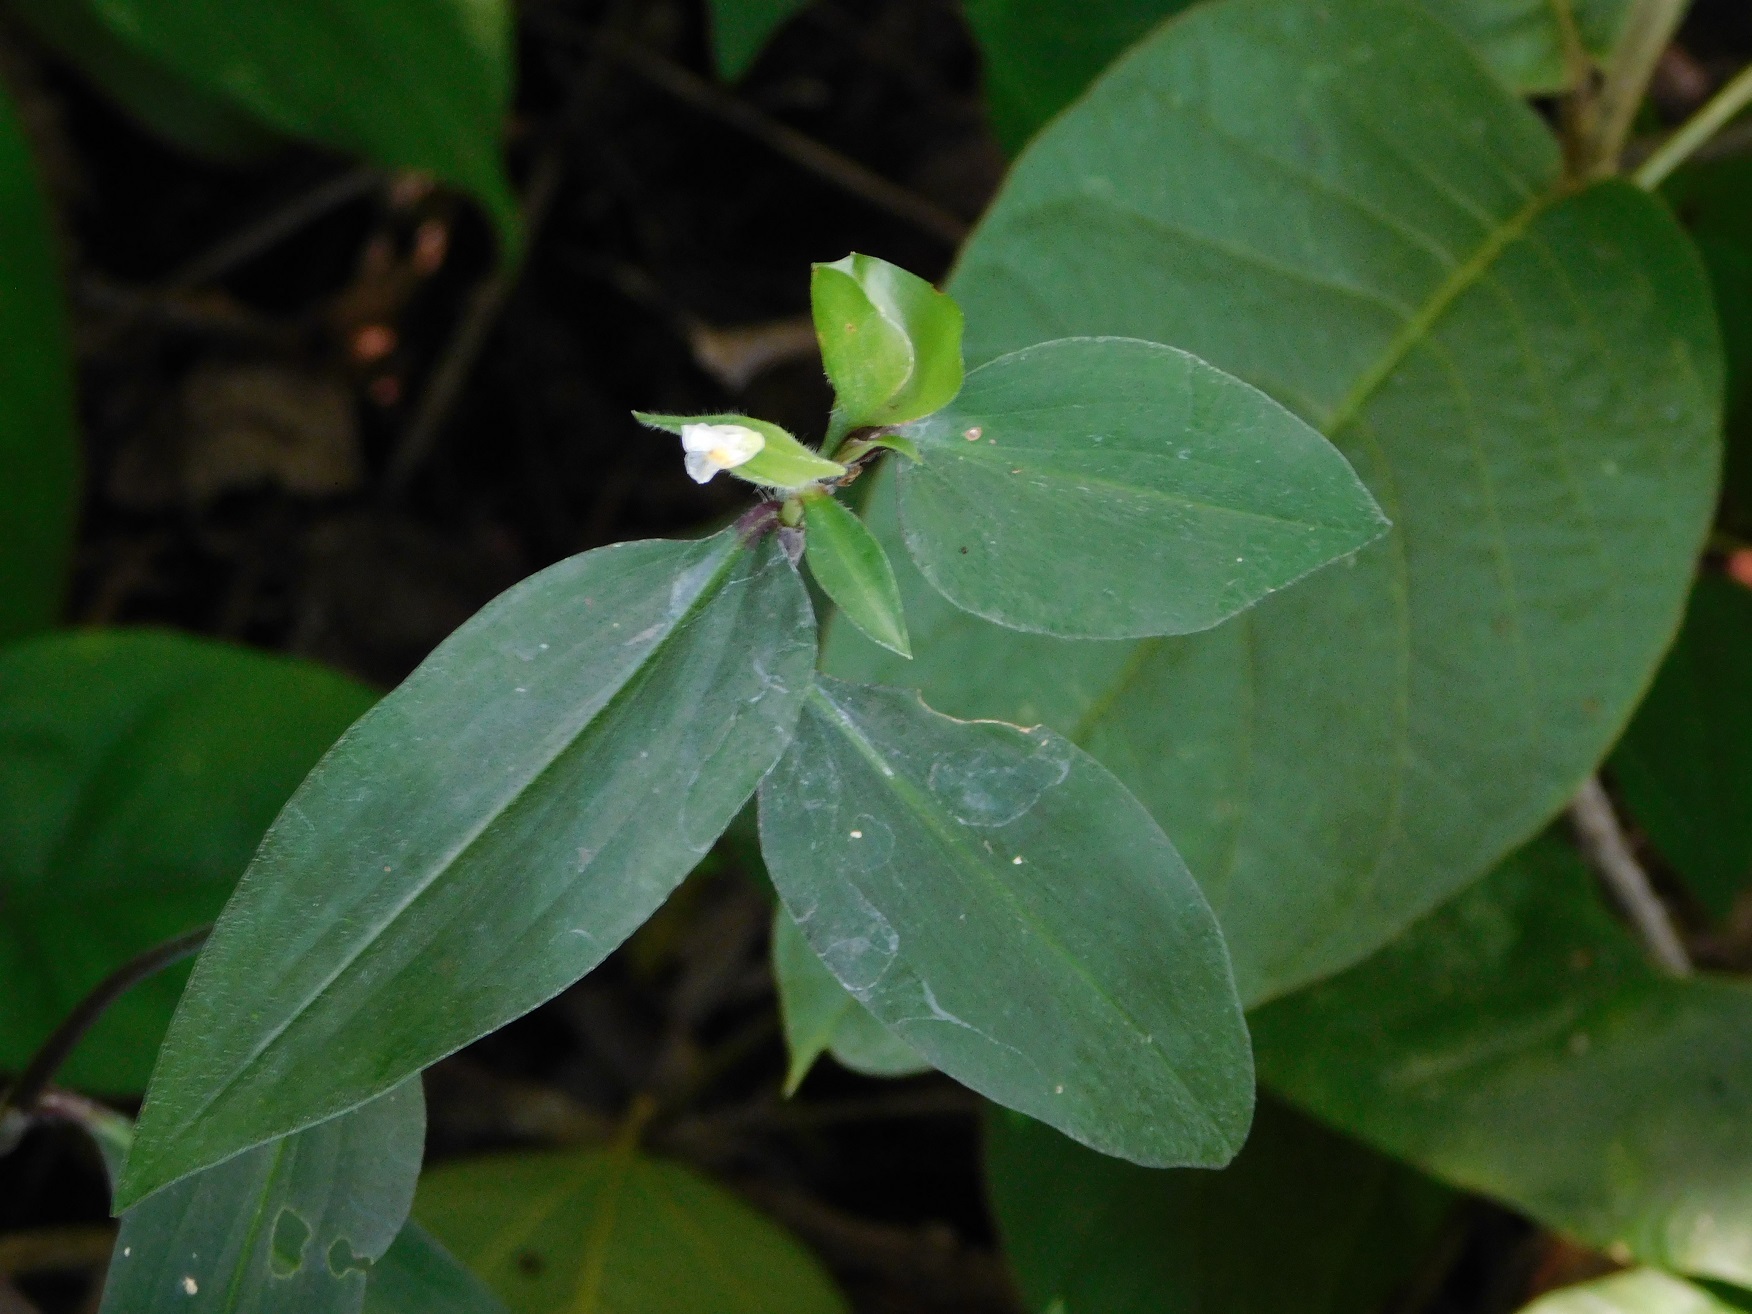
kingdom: Plantae
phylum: Tracheophyta
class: Liliopsida
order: Commelinales
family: Commelinaceae
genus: Commelina
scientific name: Commelina rufipes
